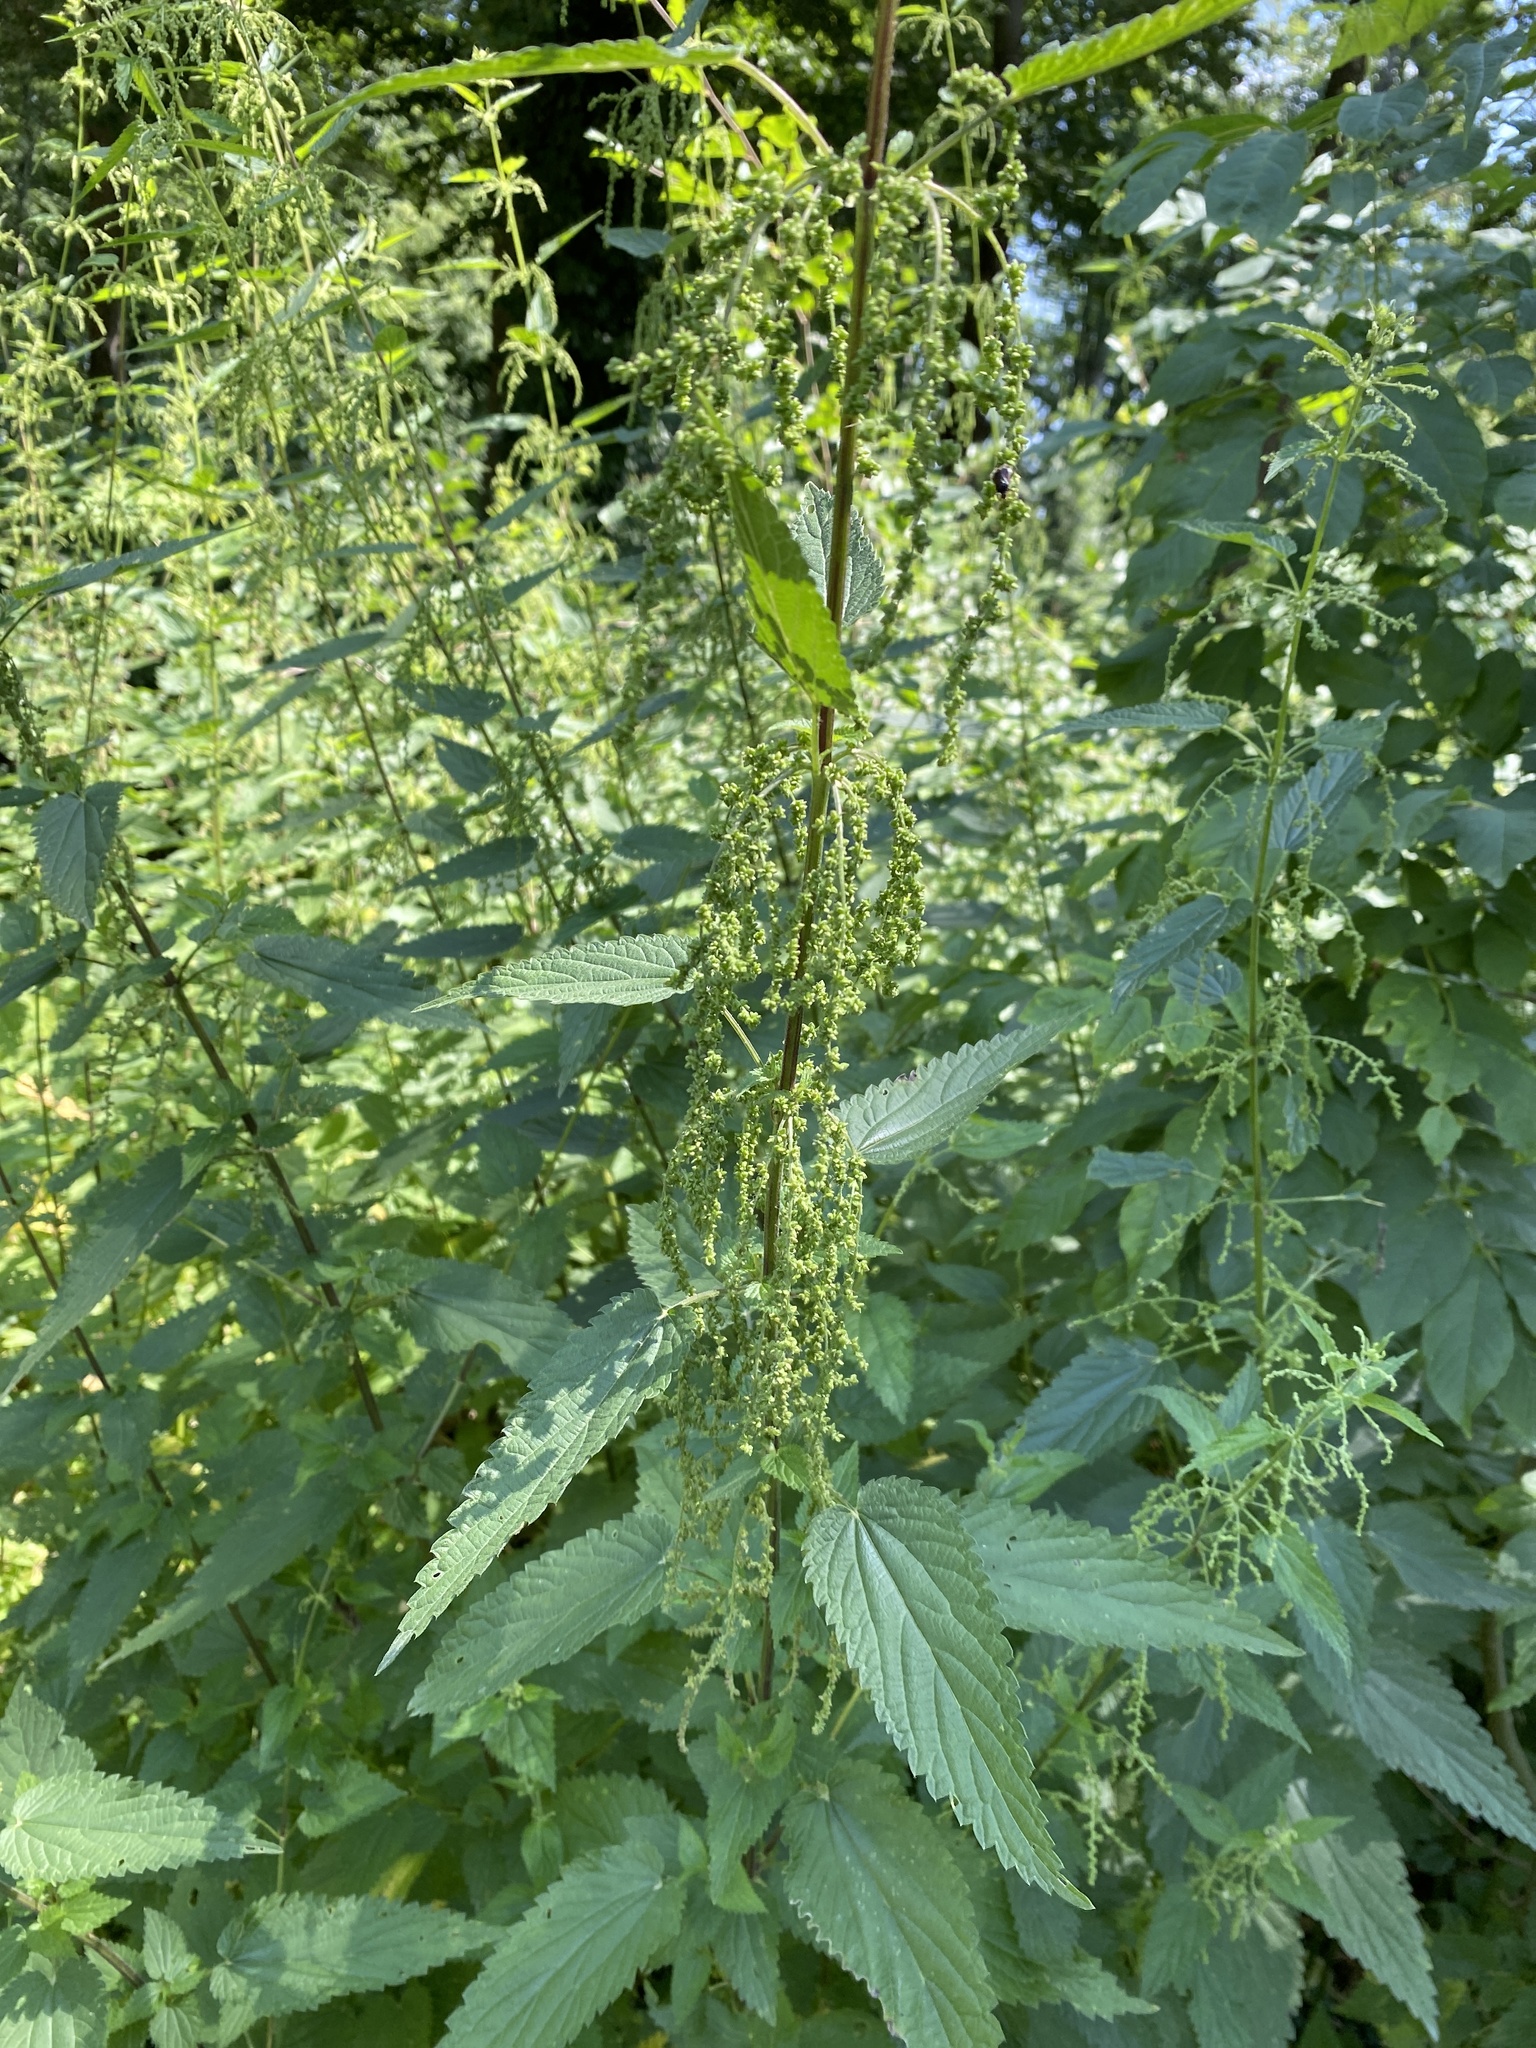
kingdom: Plantae
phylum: Tracheophyta
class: Magnoliopsida
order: Rosales
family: Urticaceae
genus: Urtica
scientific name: Urtica dioica
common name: Common nettle
